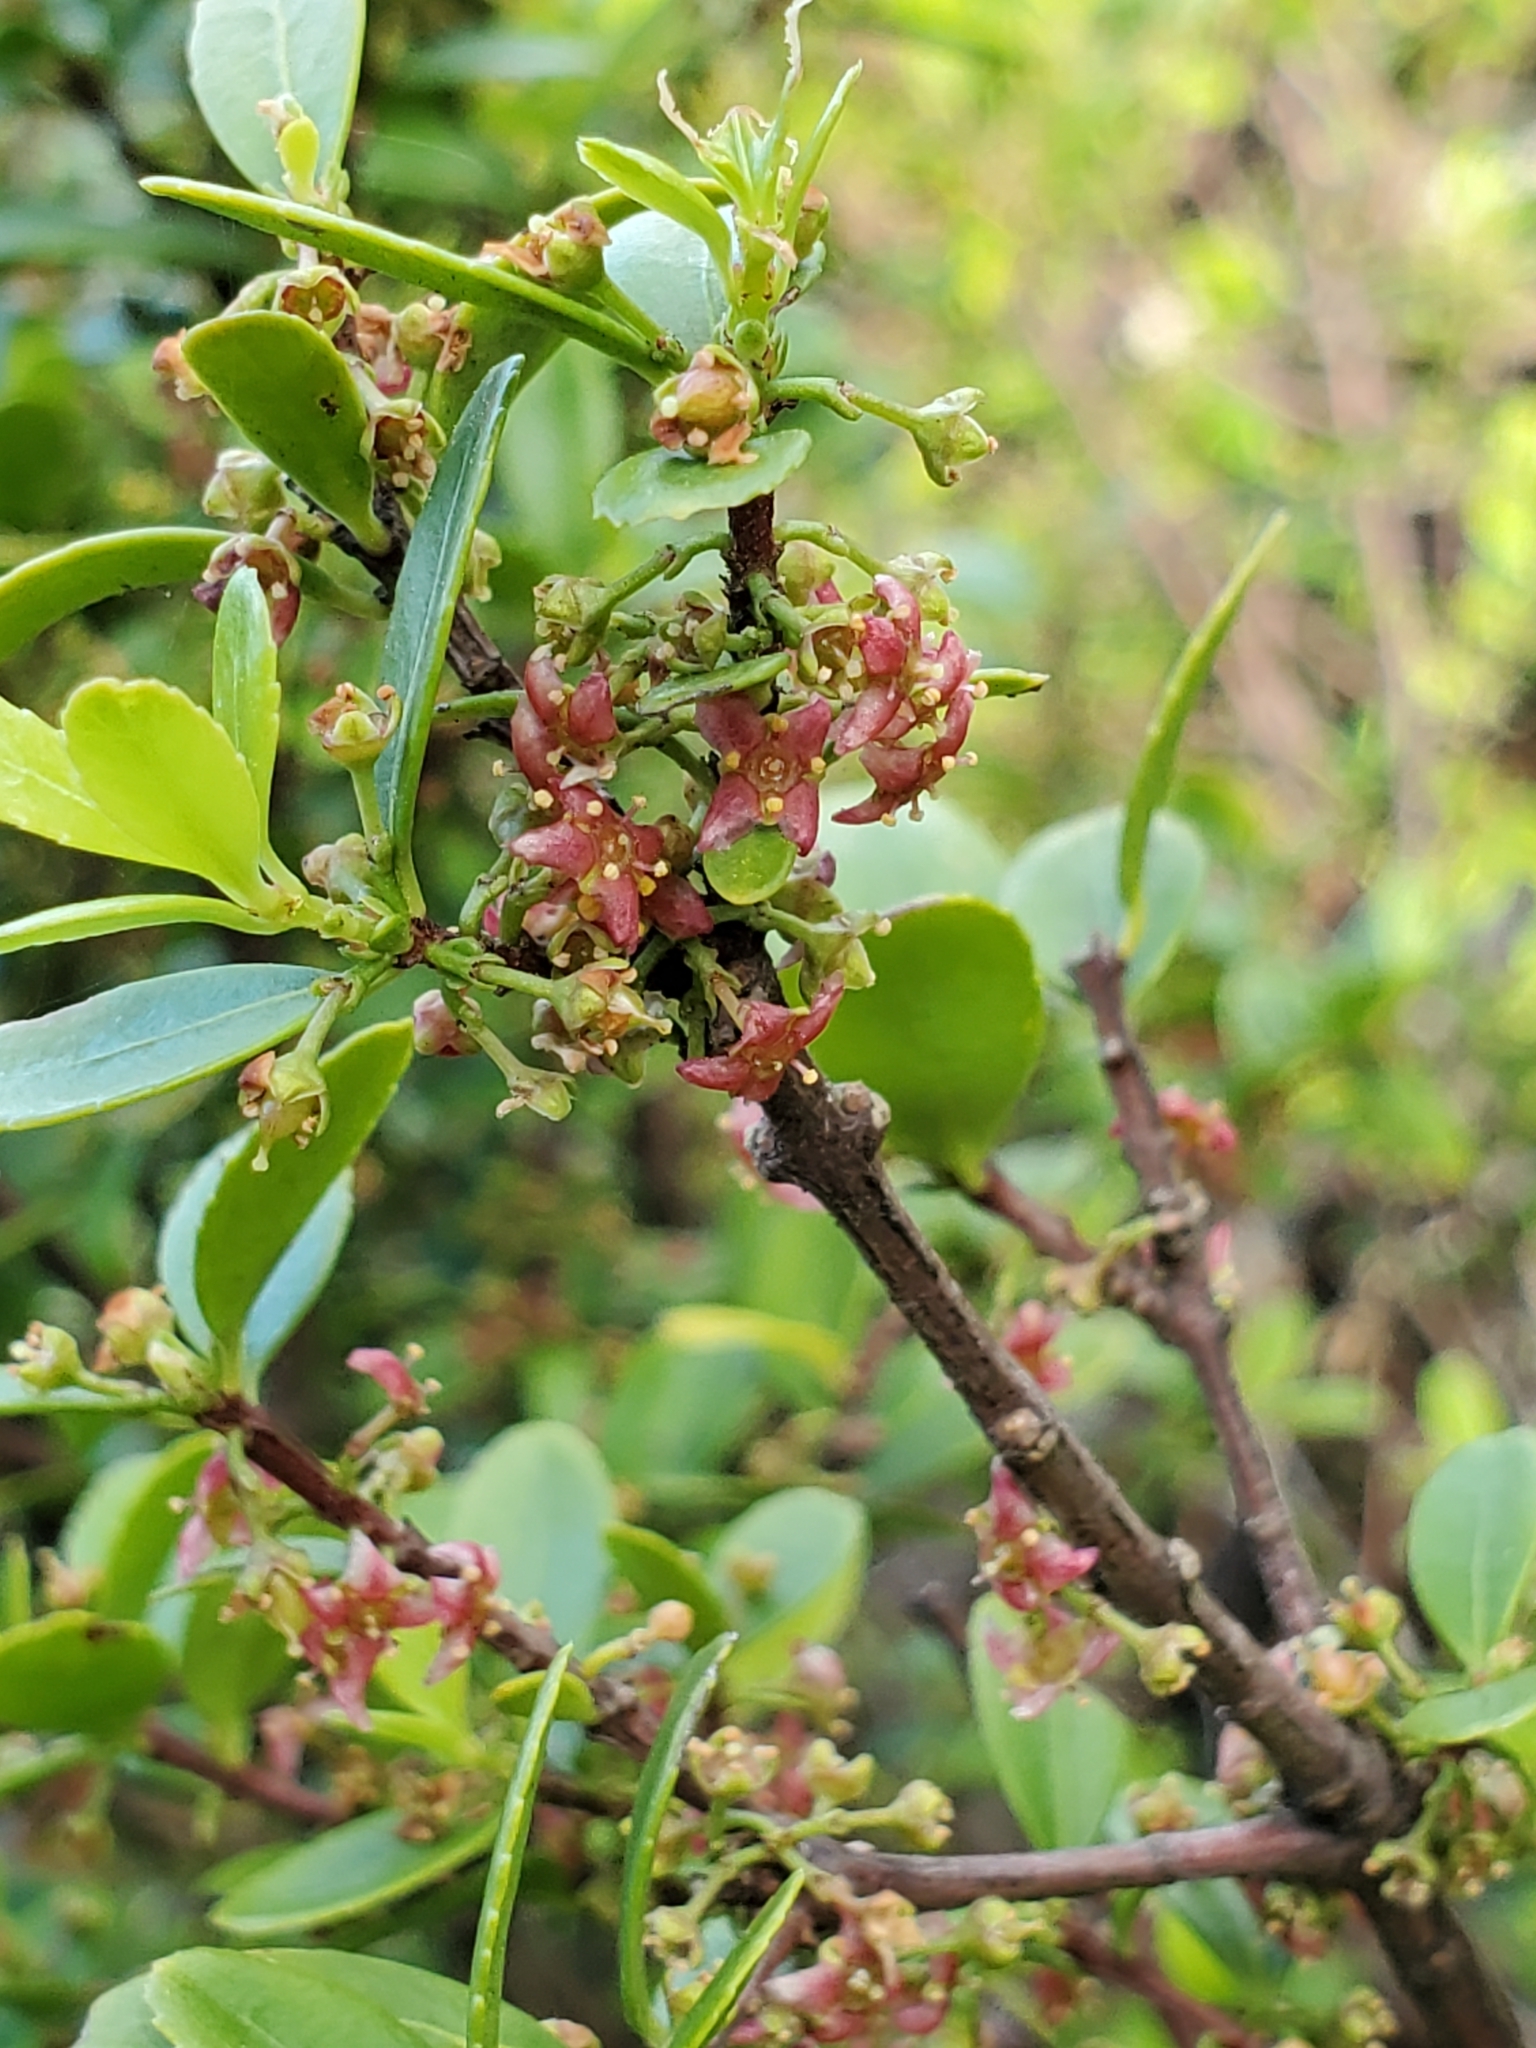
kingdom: Plantae
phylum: Tracheophyta
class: Magnoliopsida
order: Celastrales
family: Celastraceae
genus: Paxistima
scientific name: Paxistima myrsinites
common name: Mountain-lover
